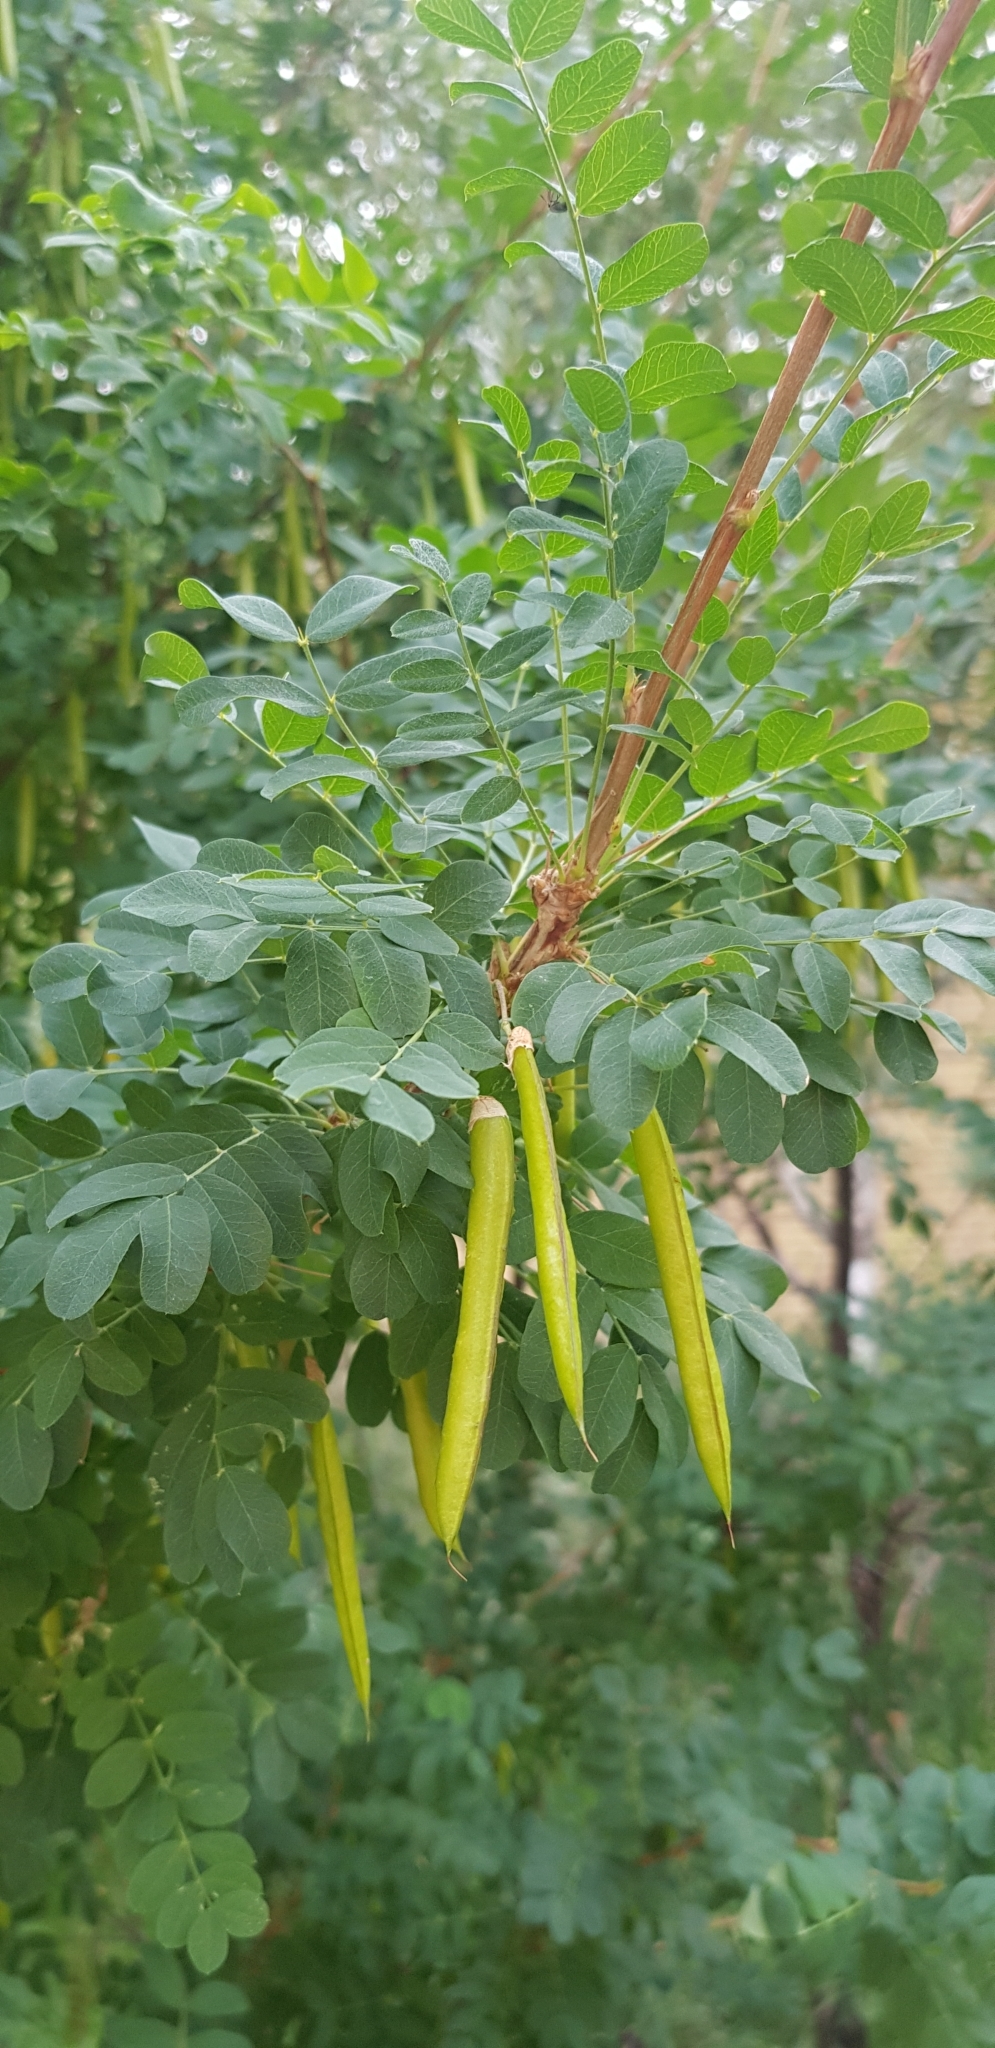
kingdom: Plantae
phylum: Tracheophyta
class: Magnoliopsida
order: Fabales
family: Fabaceae
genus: Caragana
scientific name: Caragana arborescens
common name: Siberian peashrub
